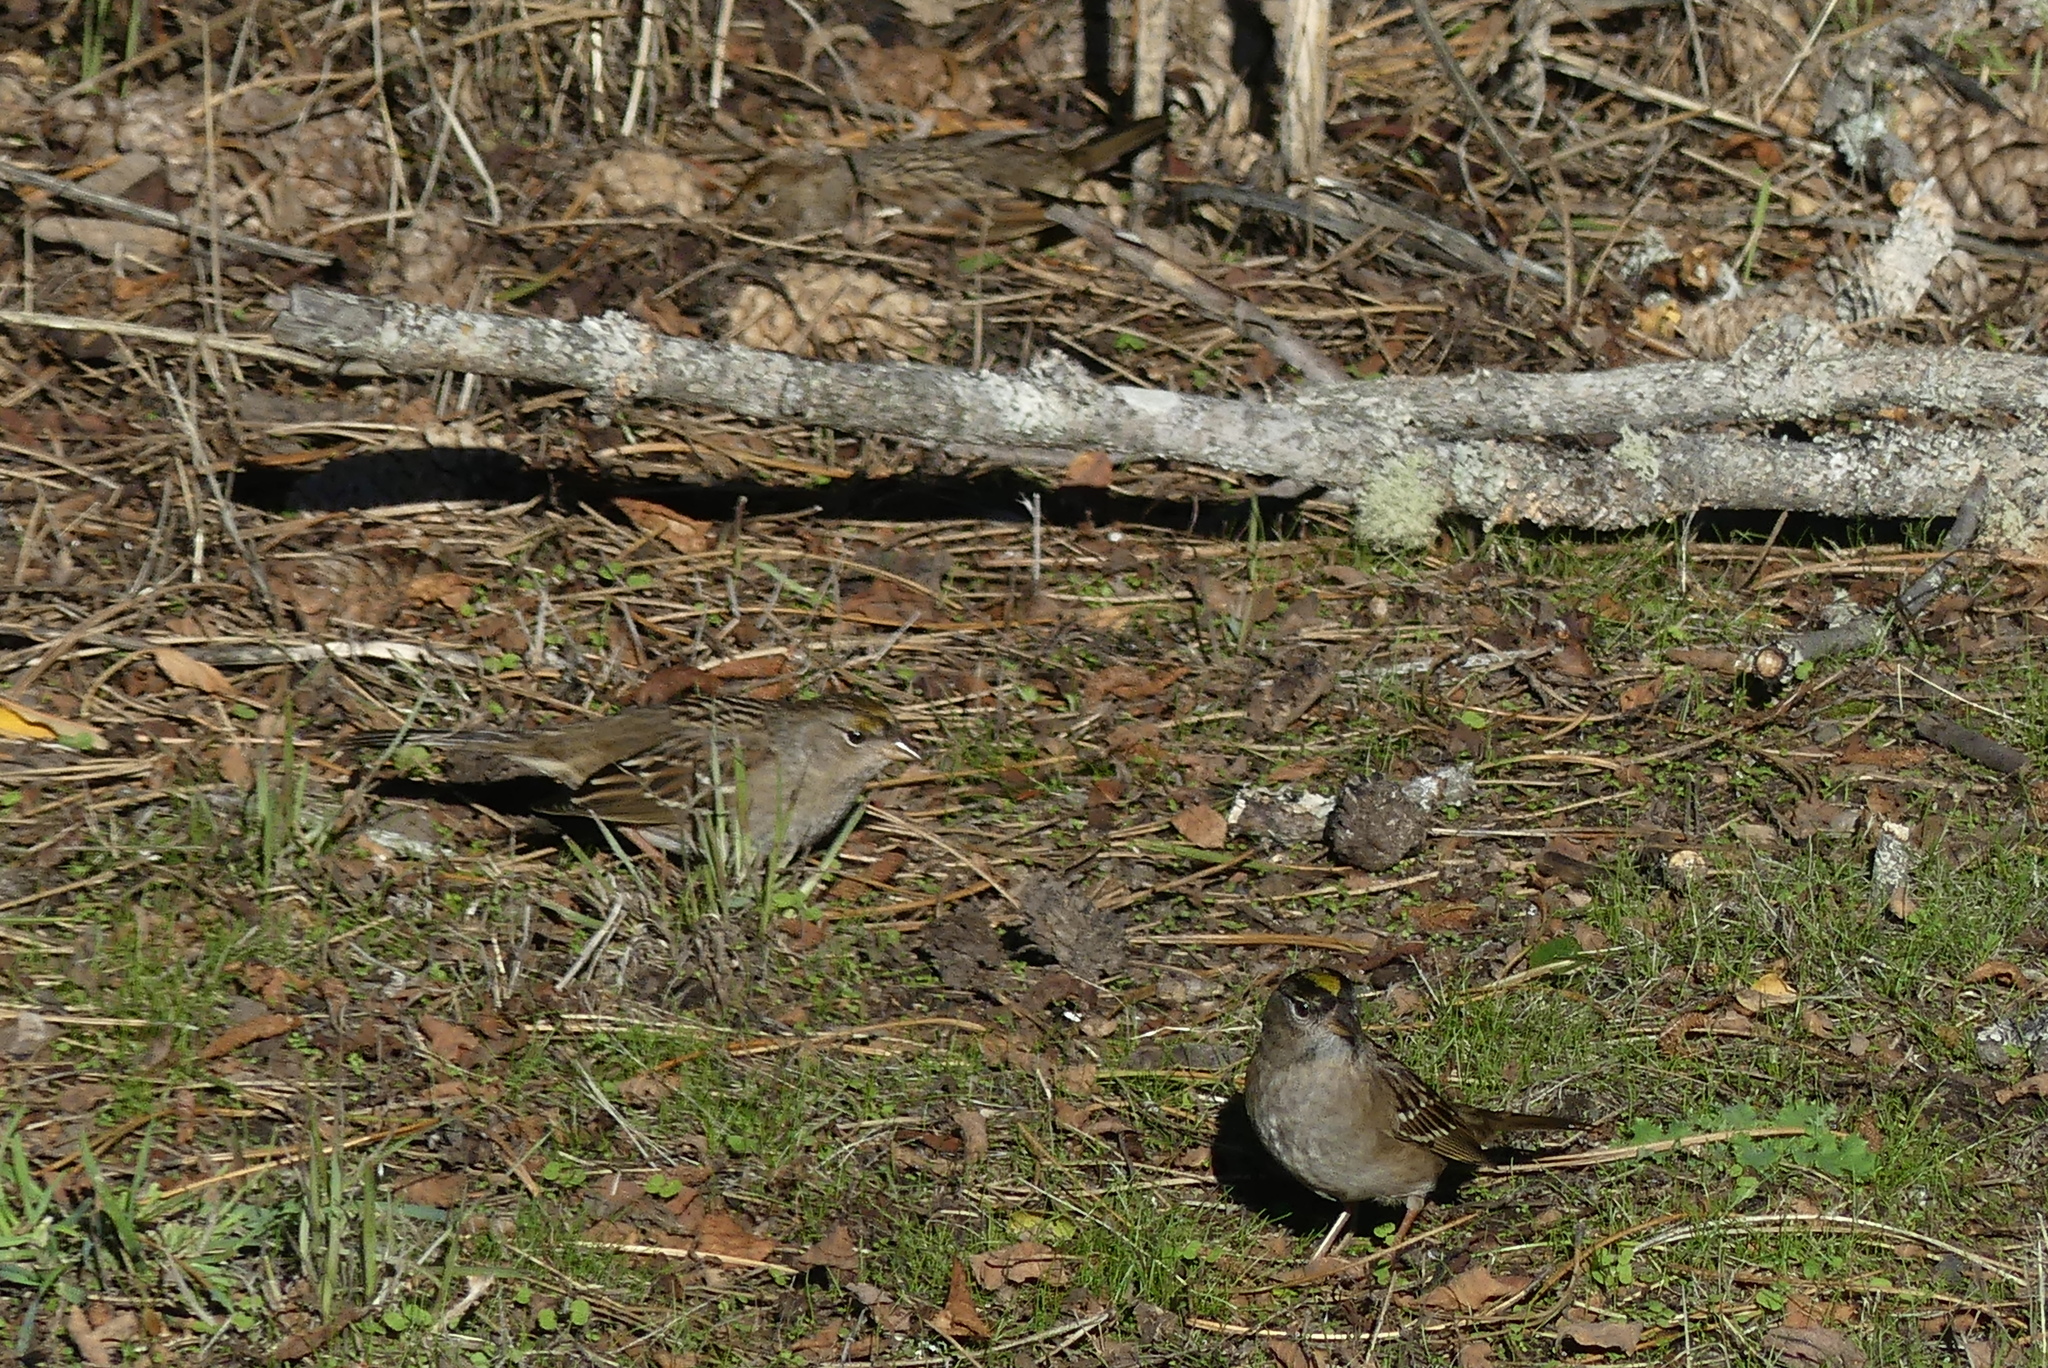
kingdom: Animalia
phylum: Chordata
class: Aves
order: Passeriformes
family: Passerellidae
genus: Zonotrichia
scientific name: Zonotrichia atricapilla
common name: Golden-crowned sparrow
